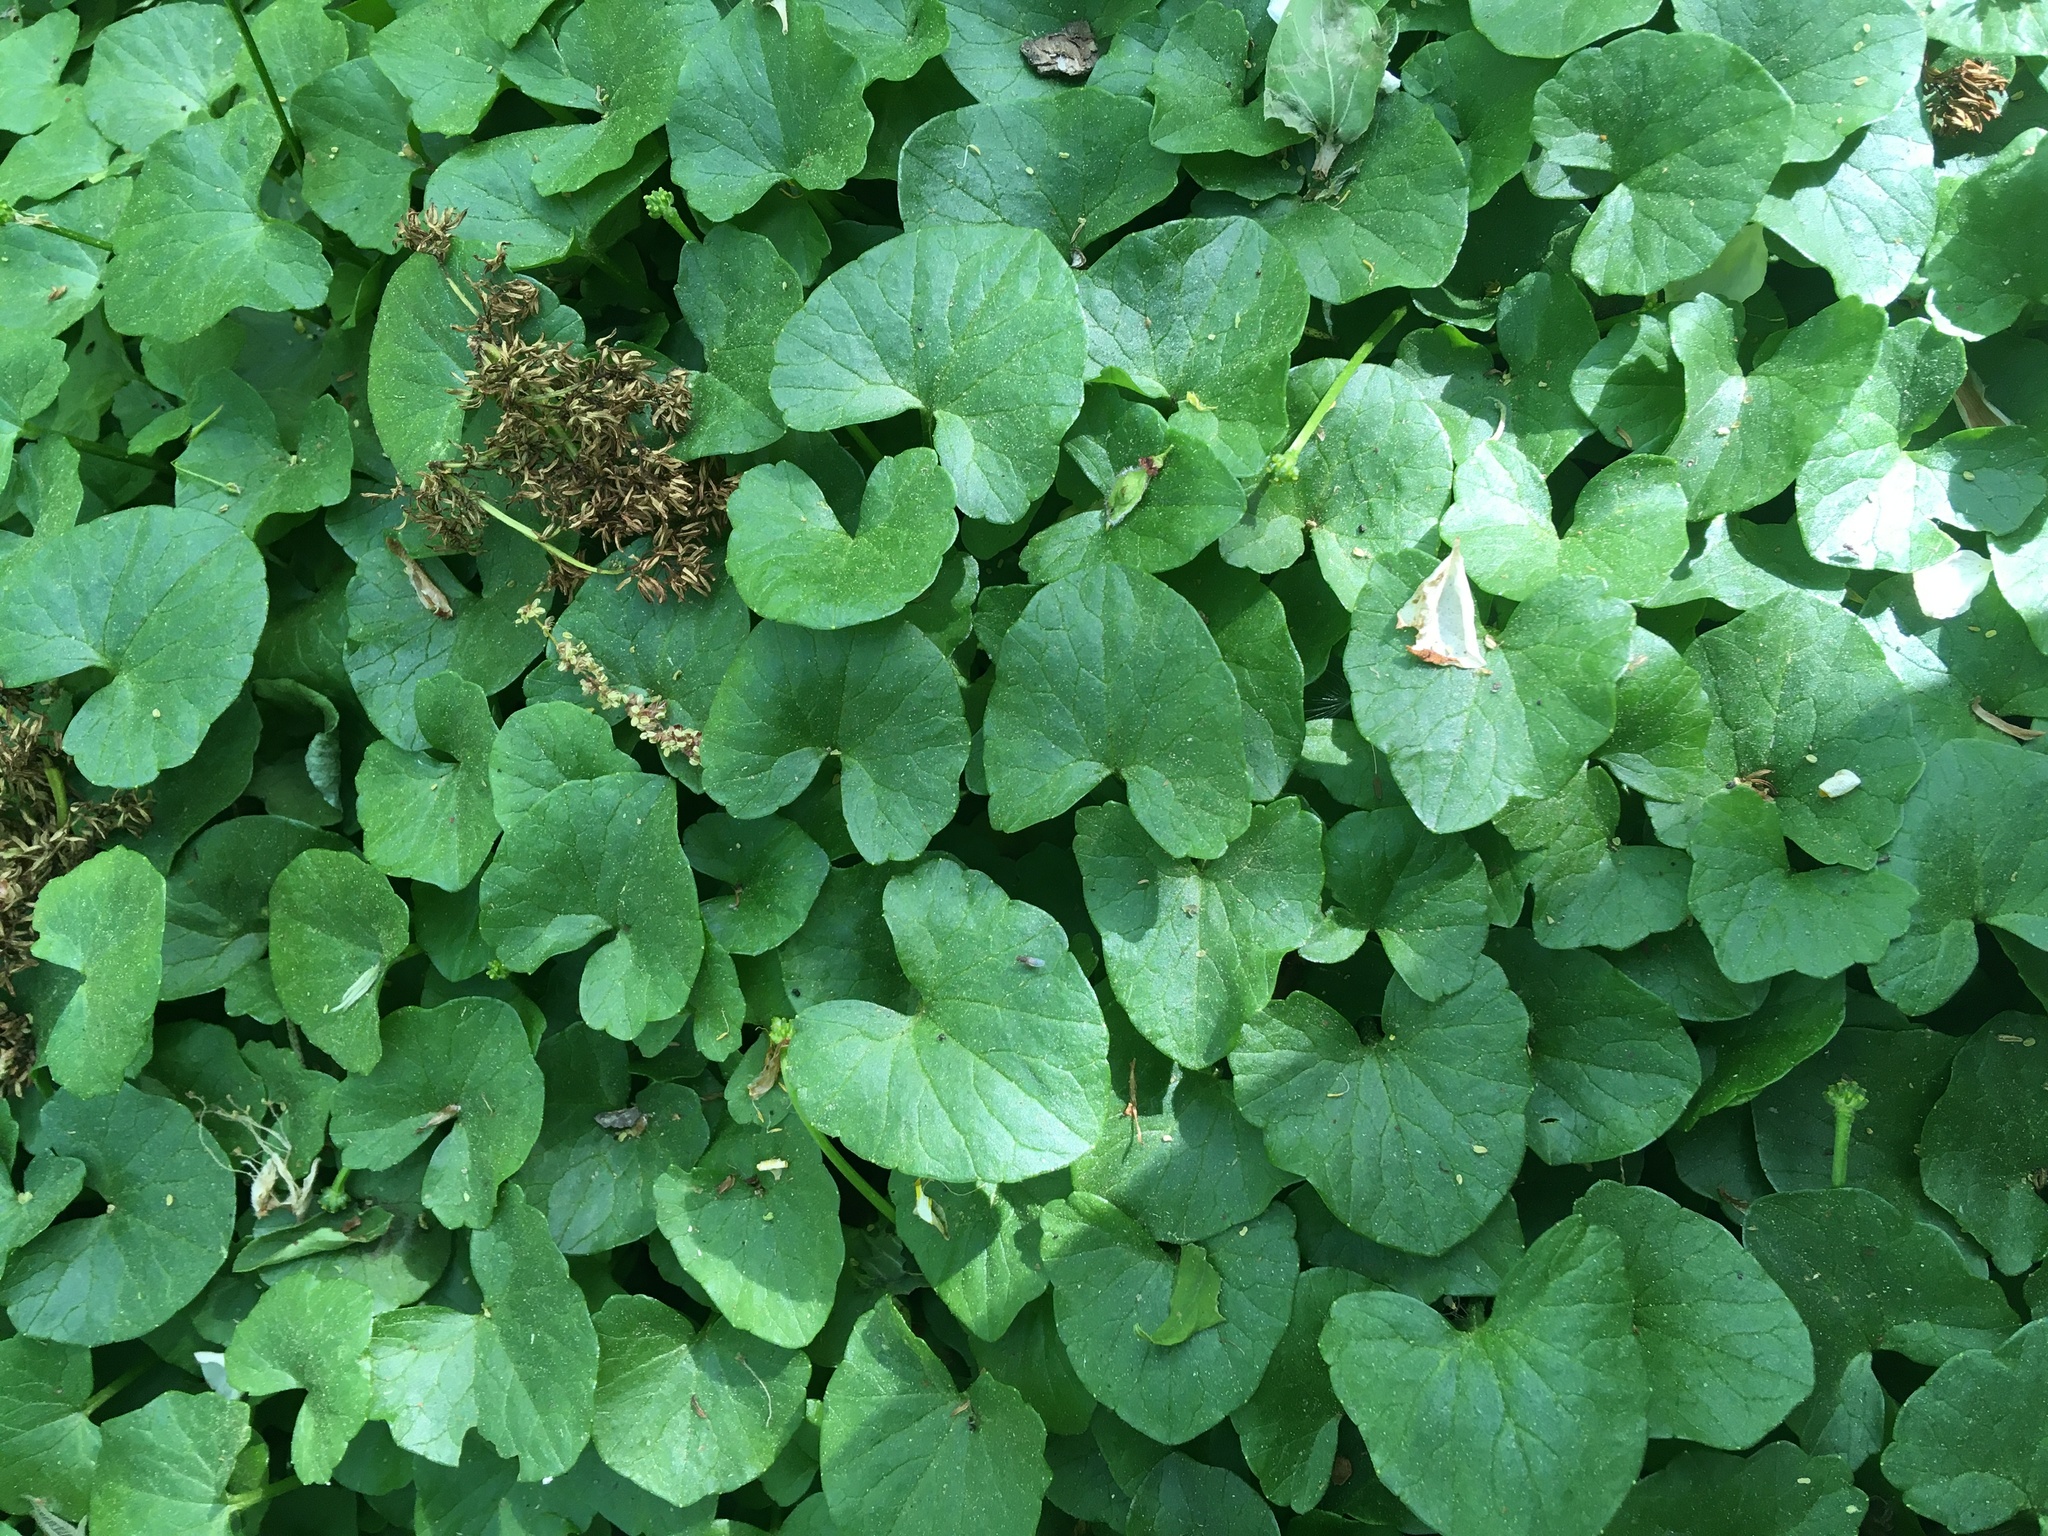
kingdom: Plantae
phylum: Tracheophyta
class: Magnoliopsida
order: Ranunculales
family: Ranunculaceae
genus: Ficaria
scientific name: Ficaria verna
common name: Lesser celandine
